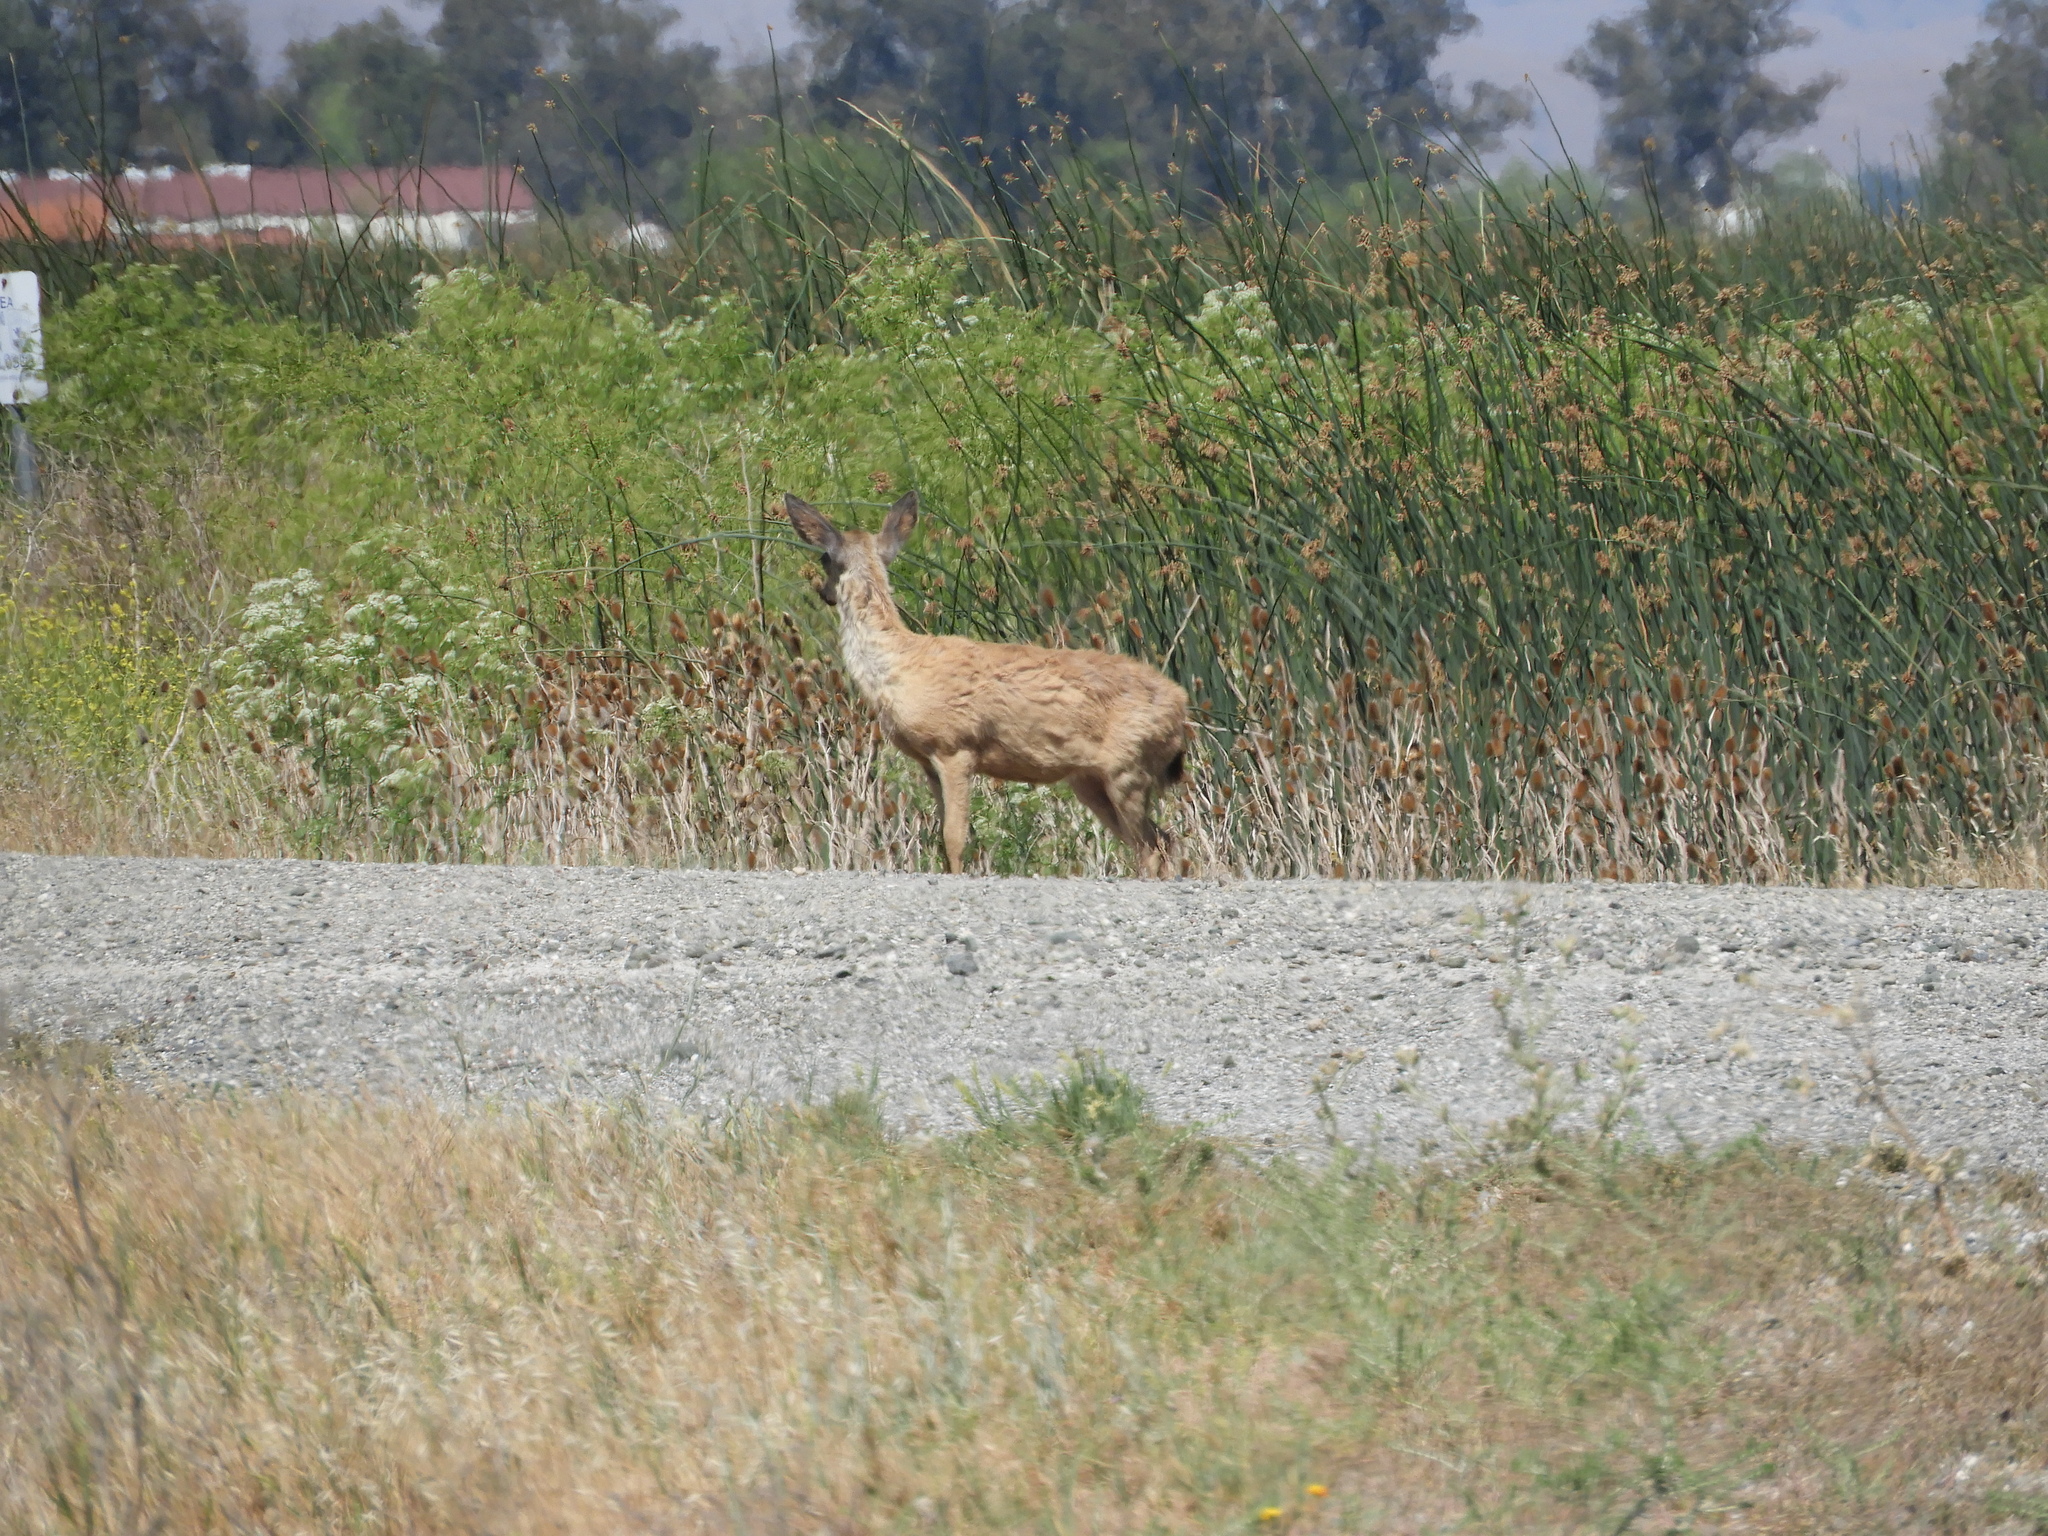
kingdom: Animalia
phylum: Chordata
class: Mammalia
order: Artiodactyla
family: Cervidae
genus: Odocoileus
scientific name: Odocoileus hemionus
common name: Mule deer
